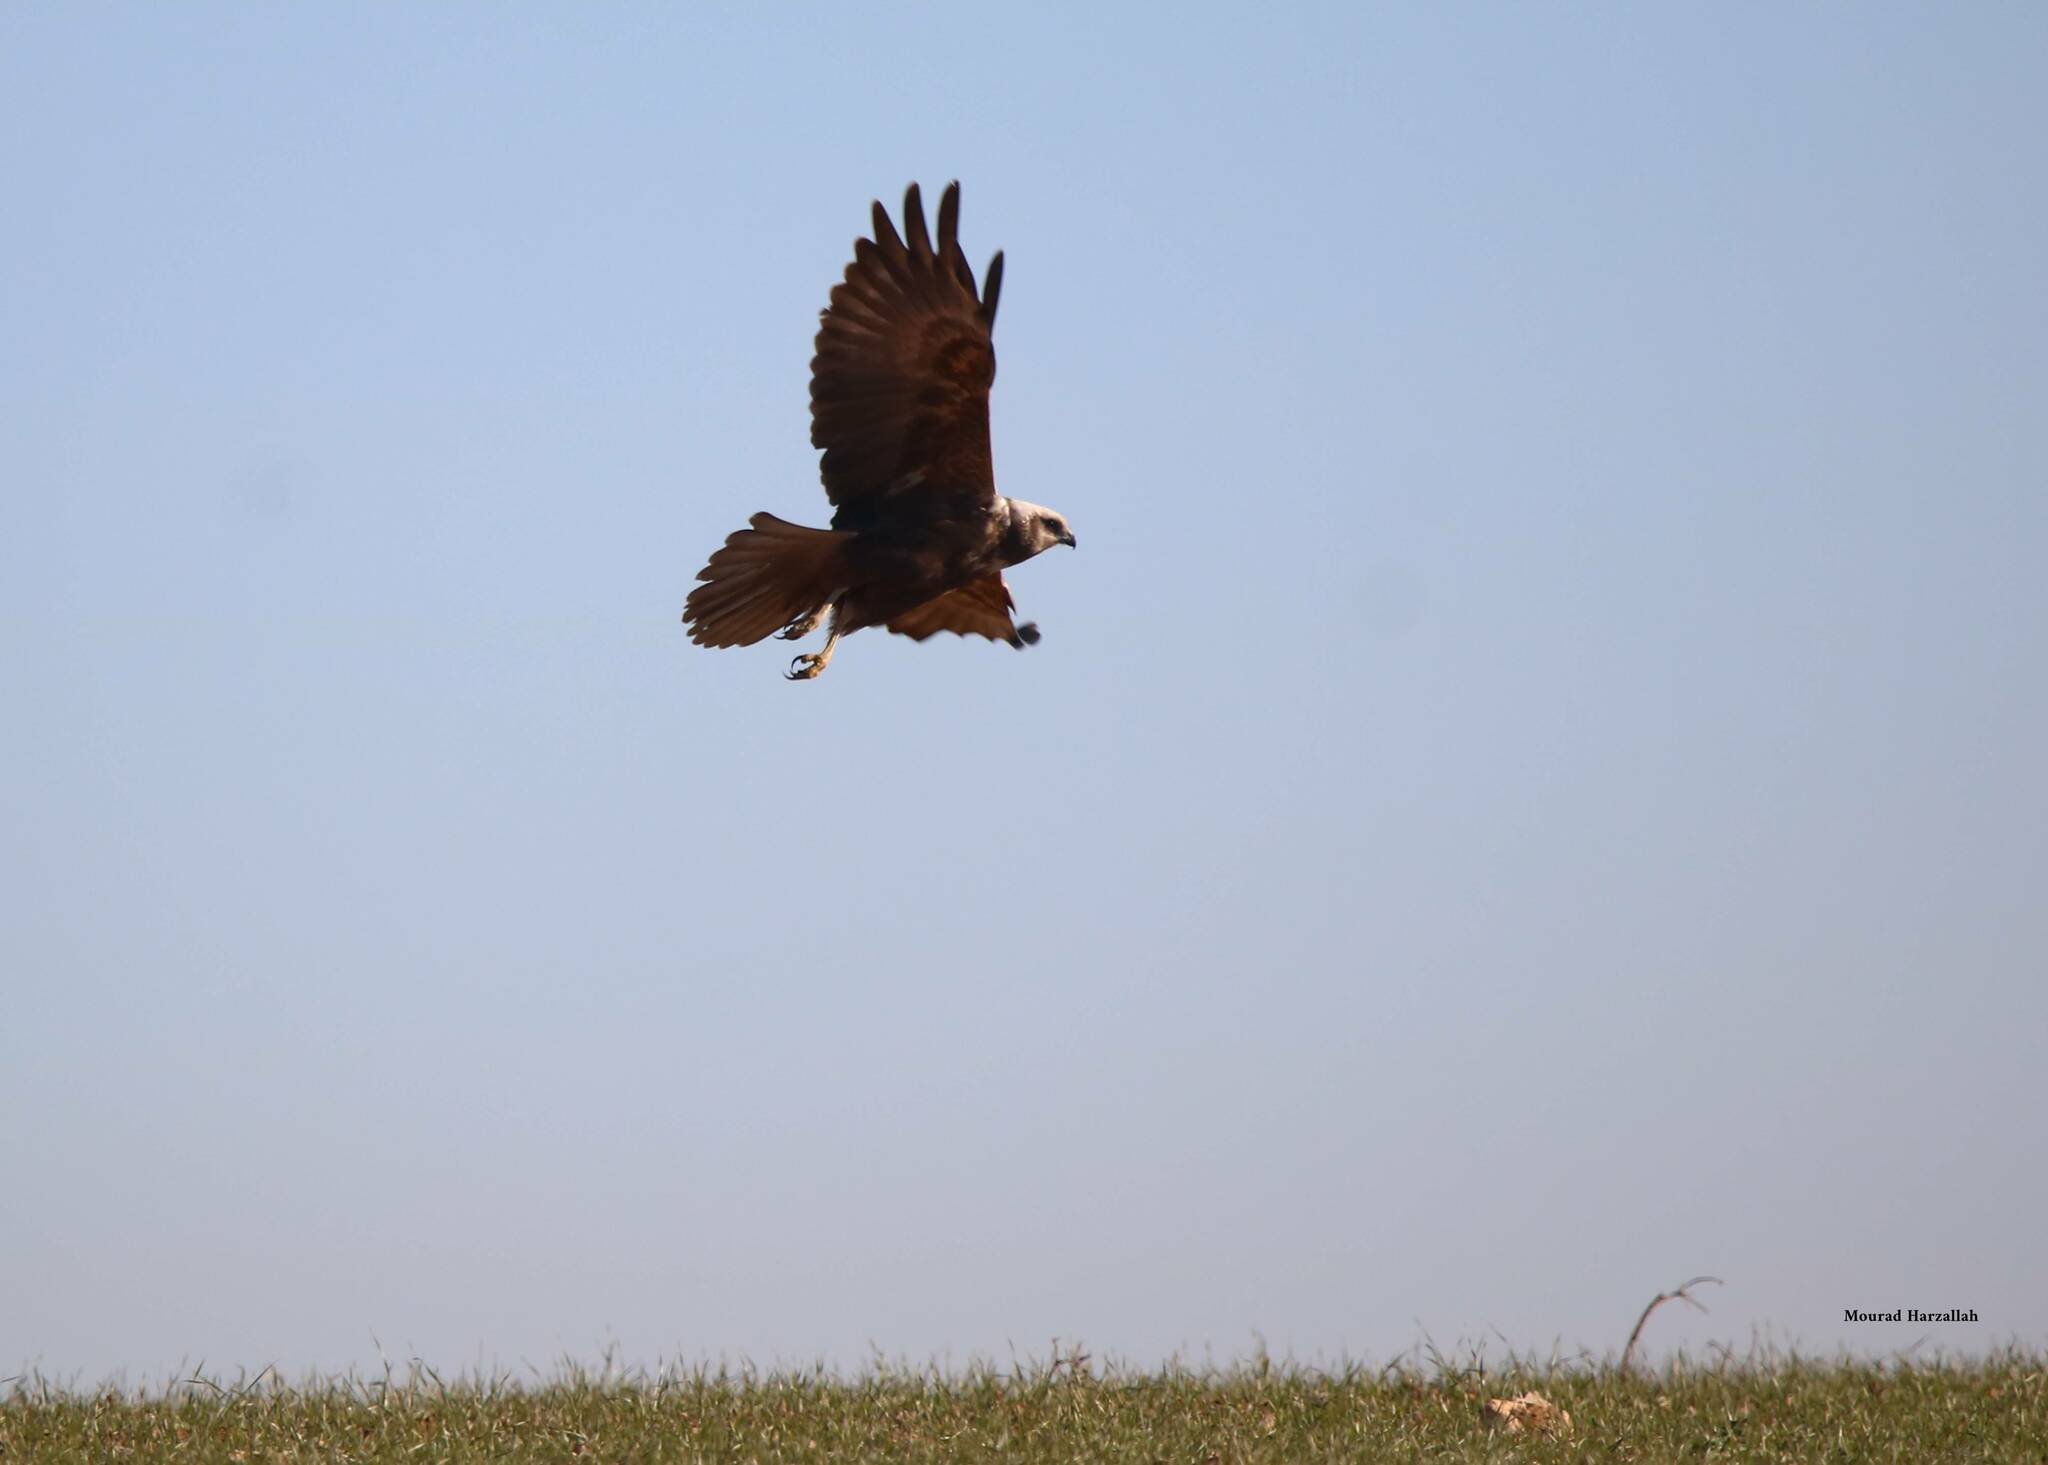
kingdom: Animalia
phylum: Chordata
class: Aves
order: Accipitriformes
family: Accipitridae
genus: Circus
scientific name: Circus aeruginosus
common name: Western marsh harrier
